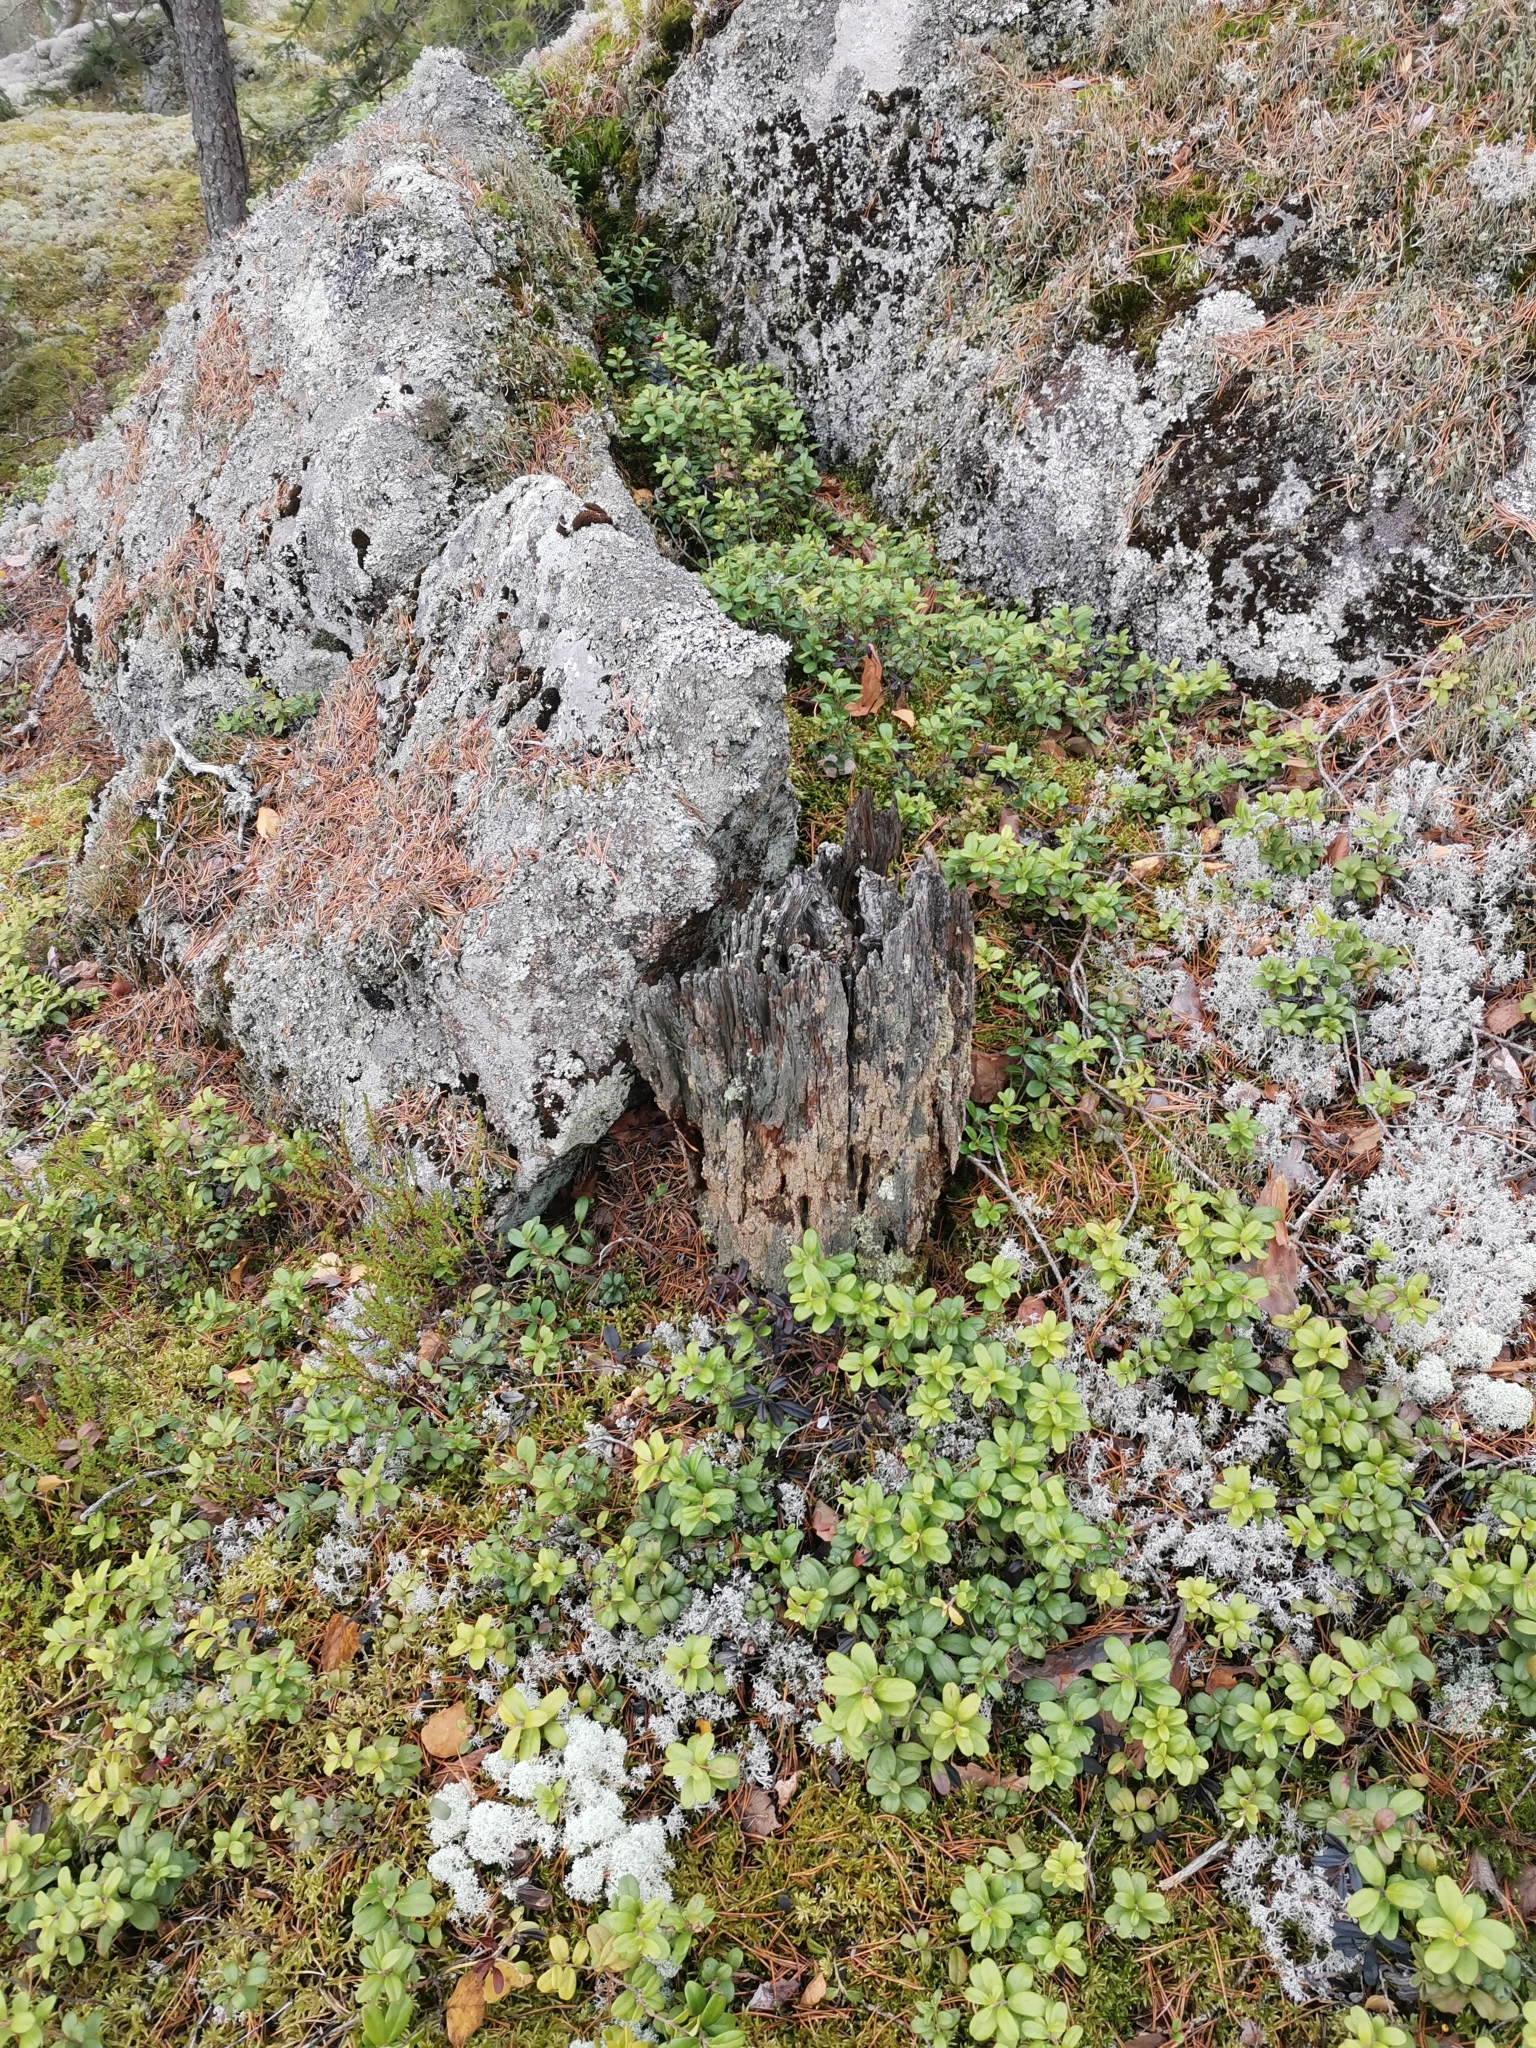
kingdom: Fungi
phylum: Ascomycota
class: Lecanoromycetes
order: Umbilicariales
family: Ophioparmaceae
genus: Hypocenomyce
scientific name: Hypocenomyce scalaris
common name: Common clam lichen
